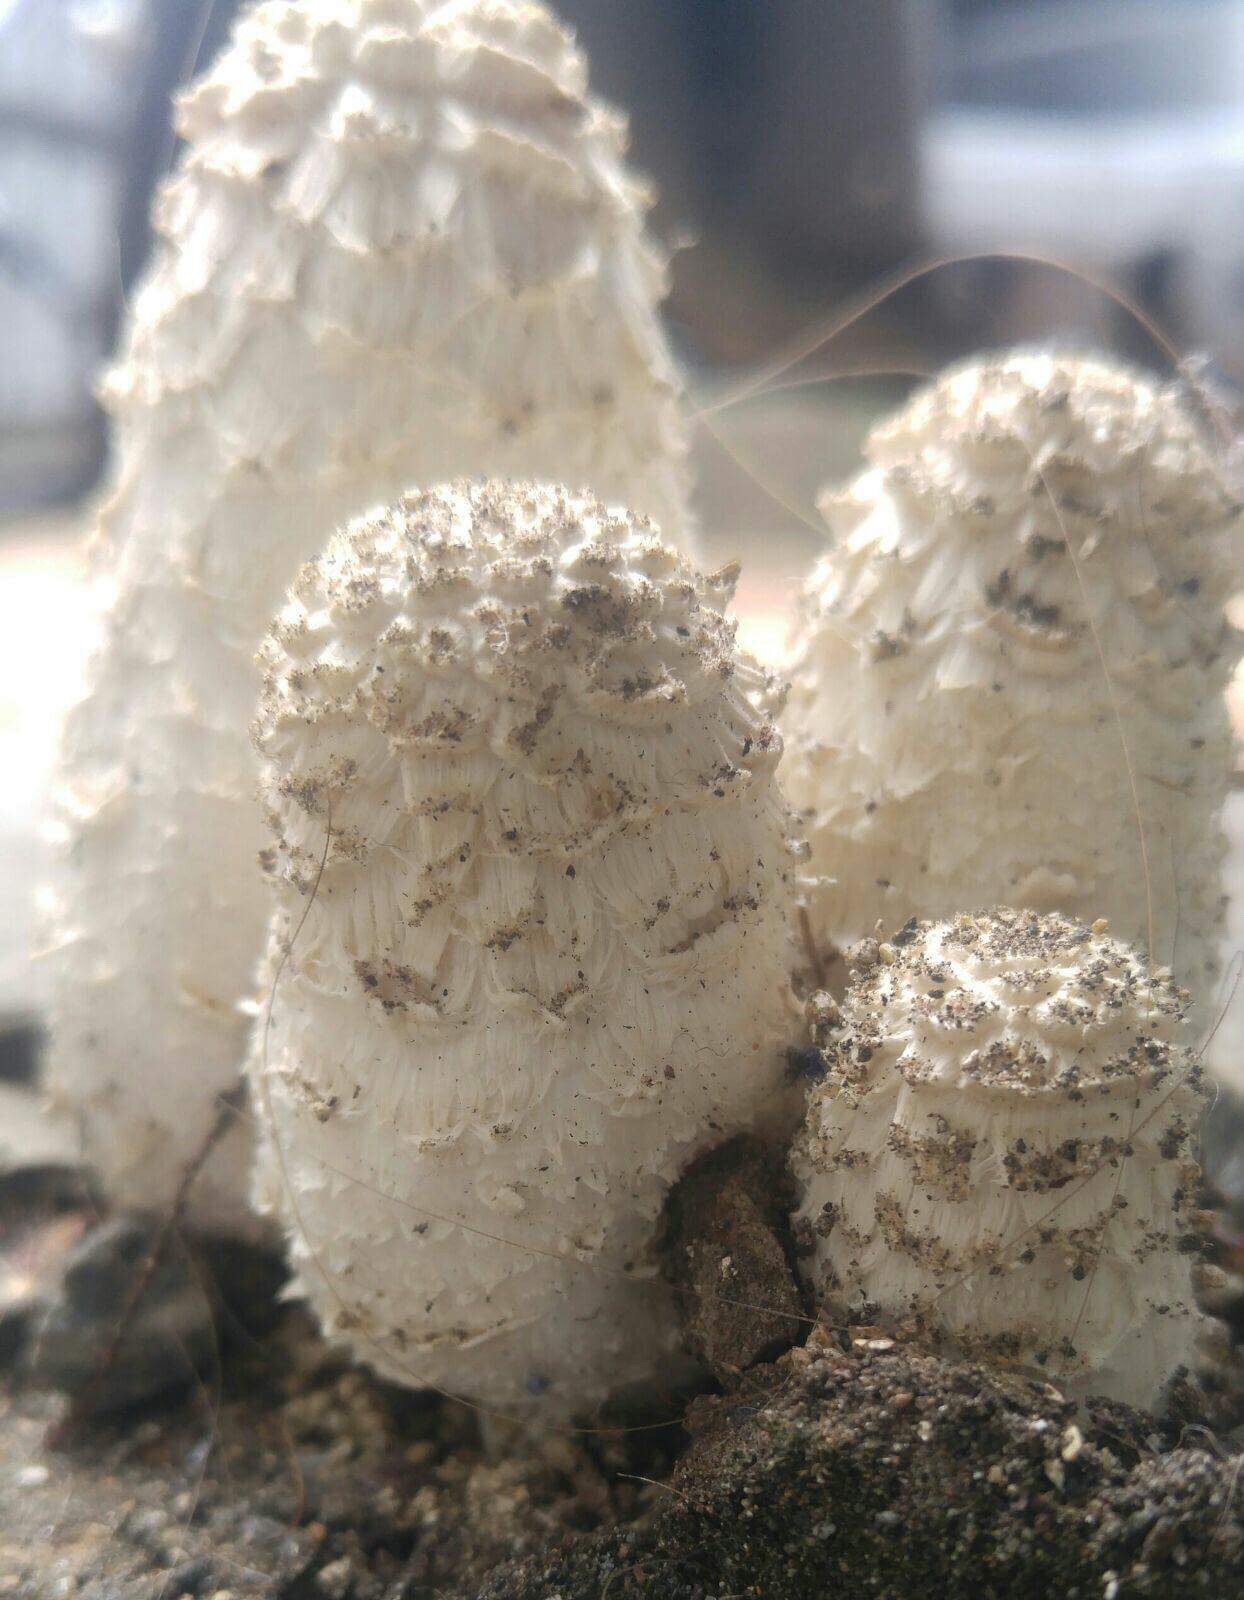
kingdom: Fungi
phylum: Basidiomycota
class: Agaricomycetes
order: Agaricales
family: Agaricaceae
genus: Coprinus
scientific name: Coprinus comatus
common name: Lawyer's wig
